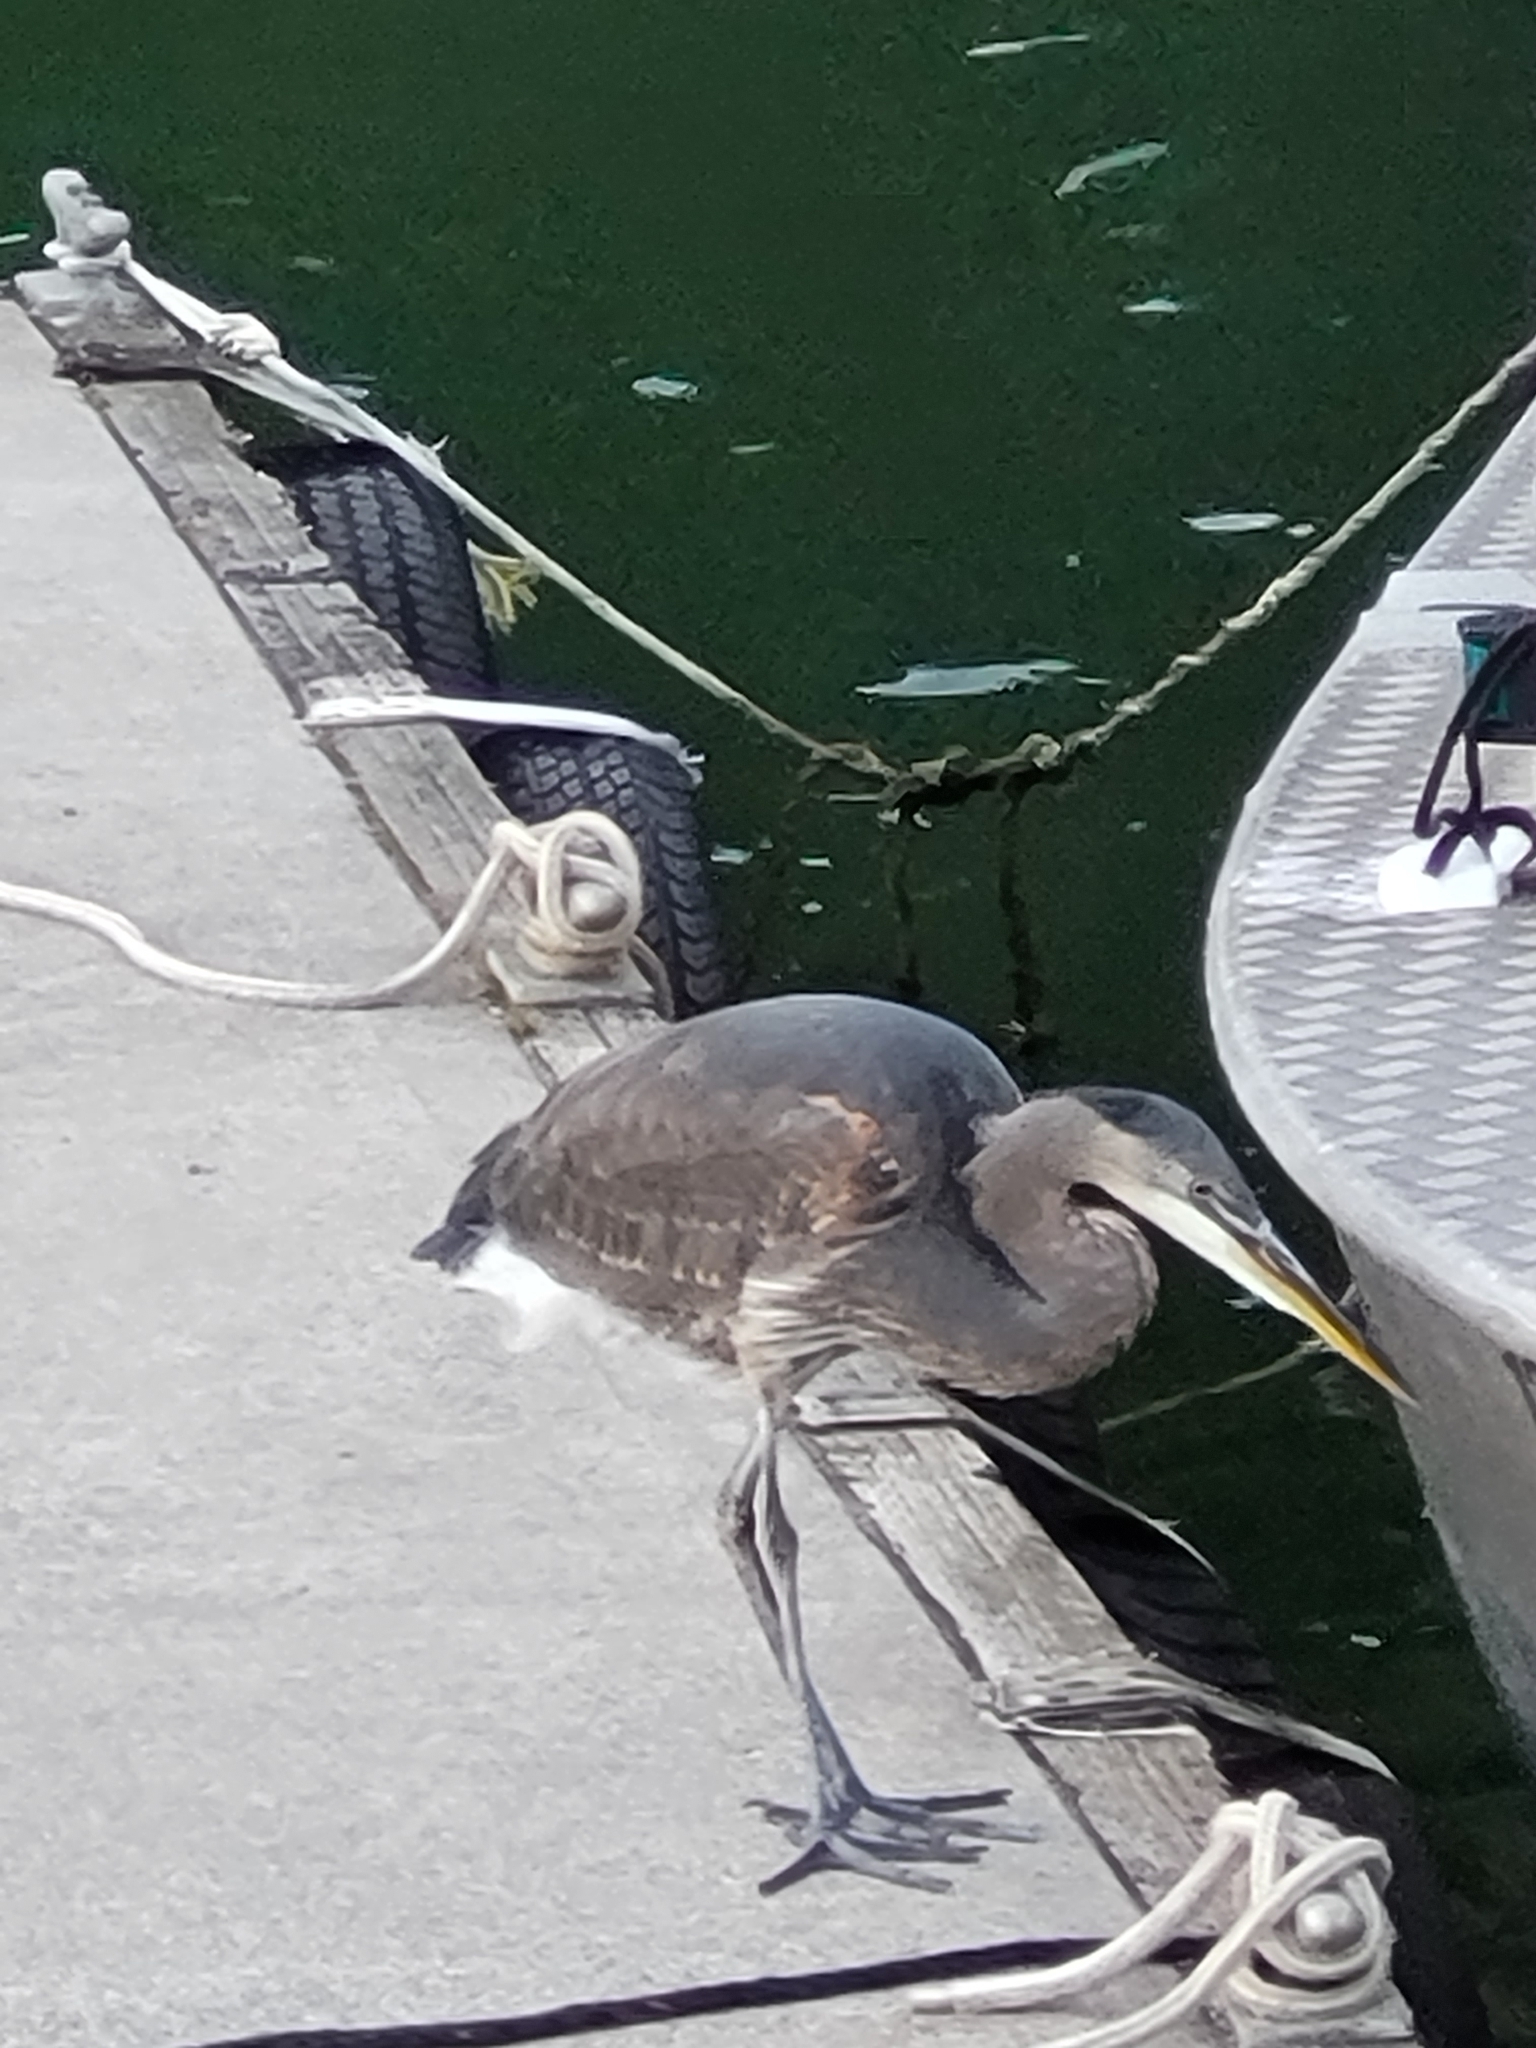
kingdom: Animalia
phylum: Chordata
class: Aves
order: Pelecaniformes
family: Ardeidae
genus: Ardea
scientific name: Ardea herodias
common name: Great blue heron
